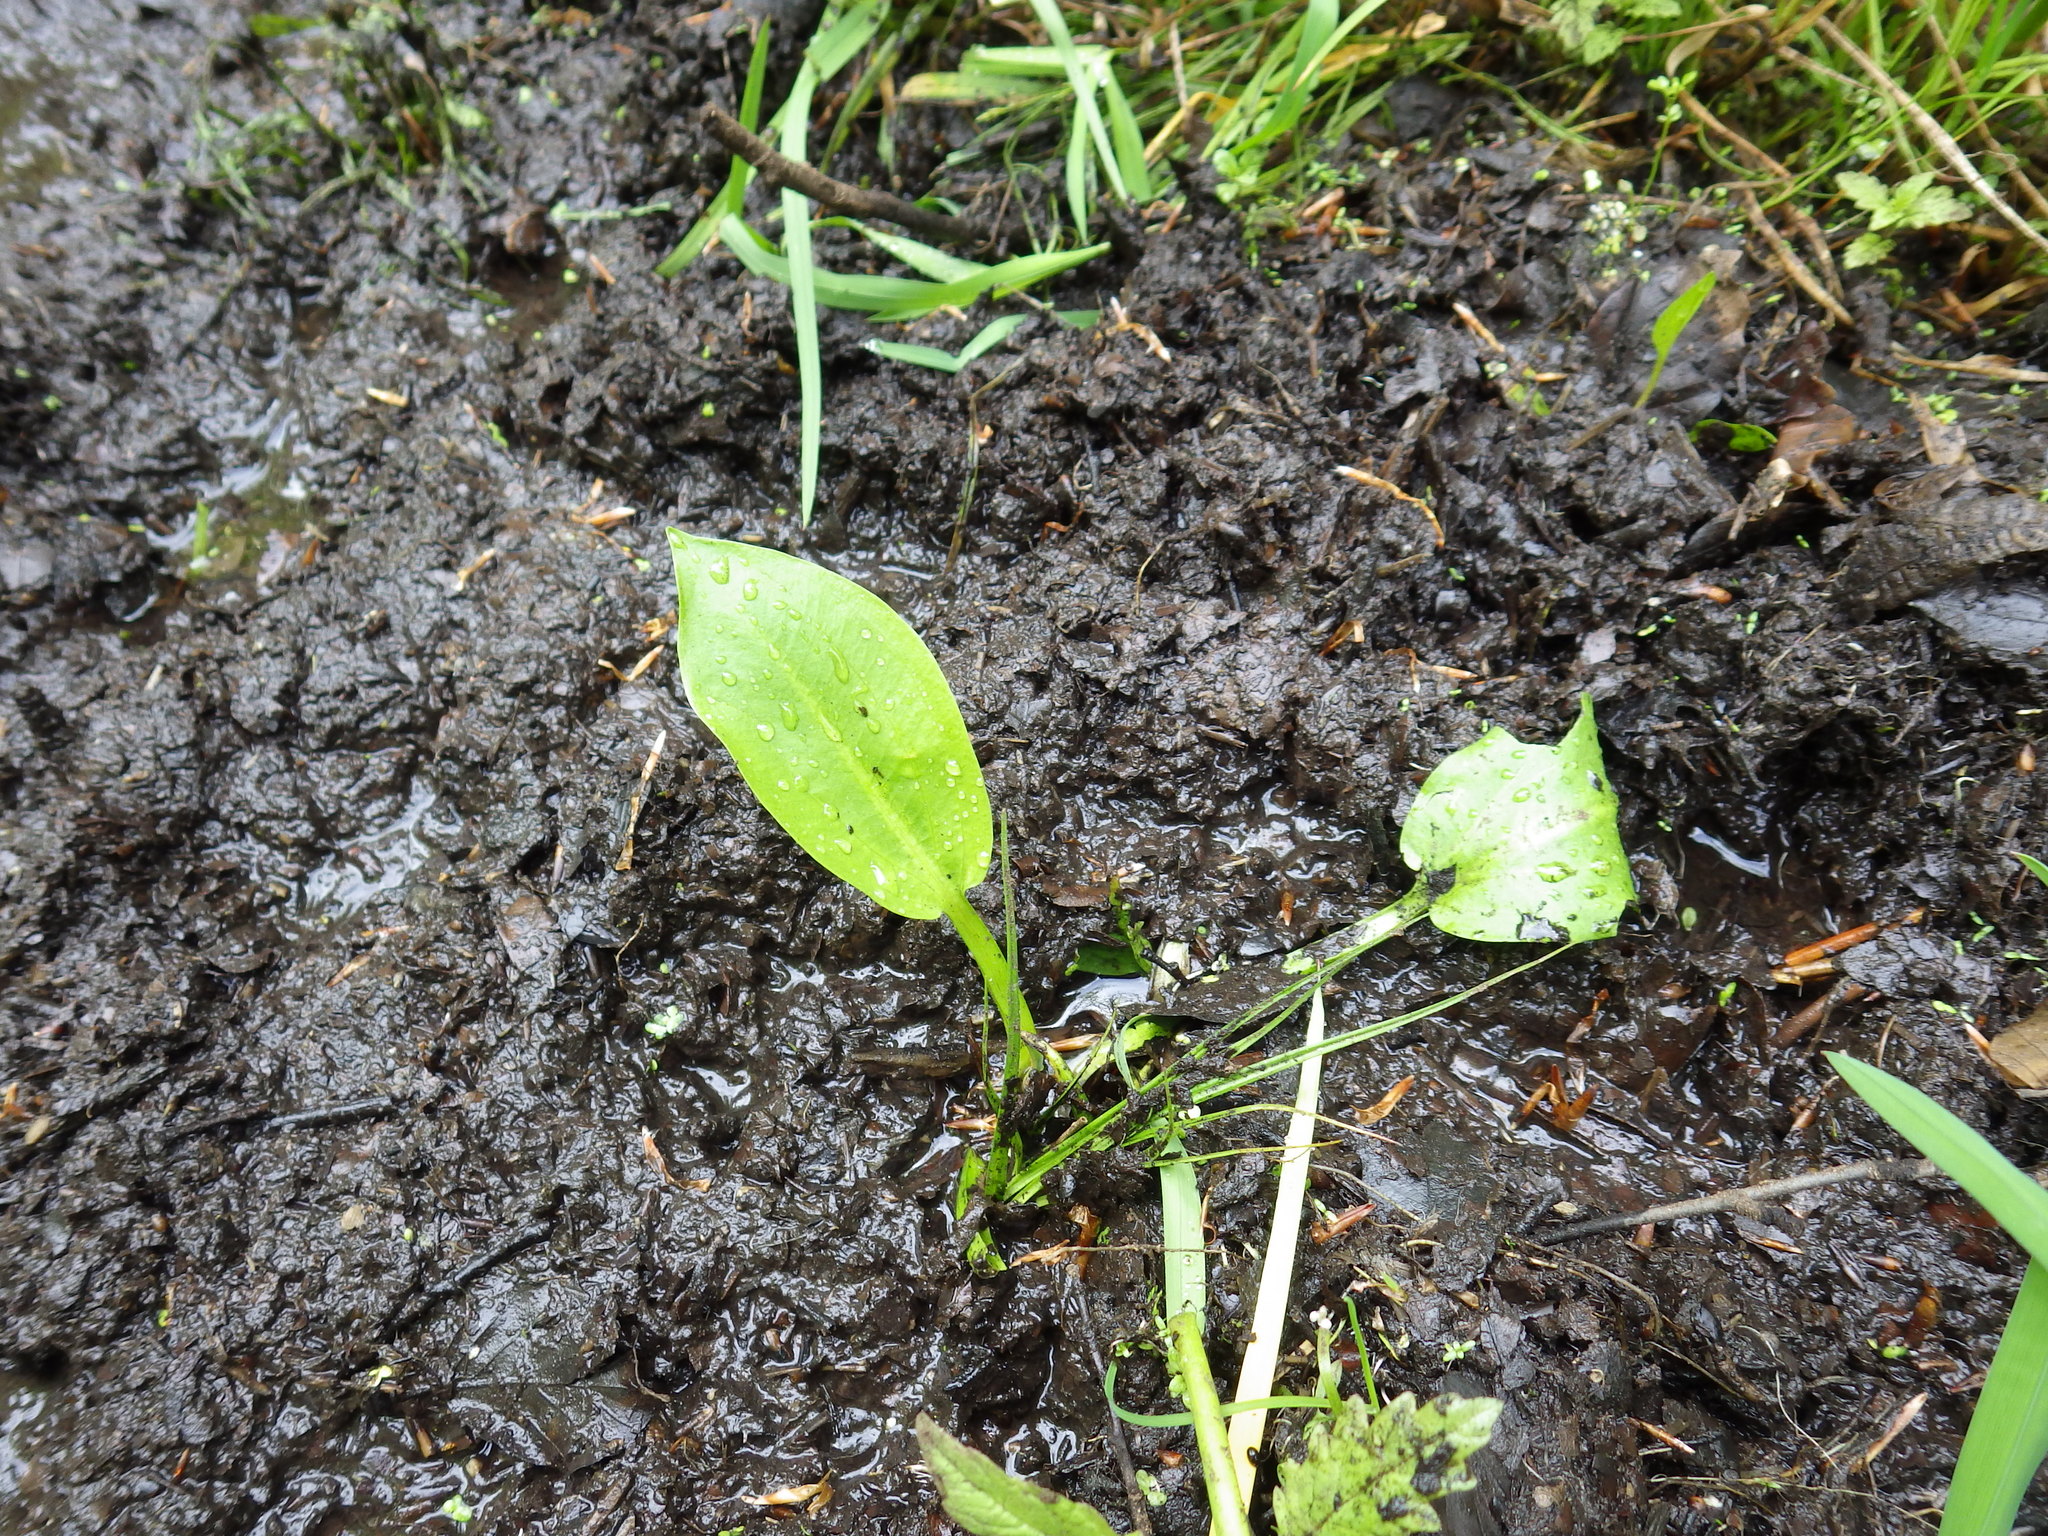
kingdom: Plantae
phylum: Tracheophyta
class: Liliopsida
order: Alismatales
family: Alismataceae
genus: Alisma
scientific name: Alisma plantago-aquatica
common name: Water-plantain
